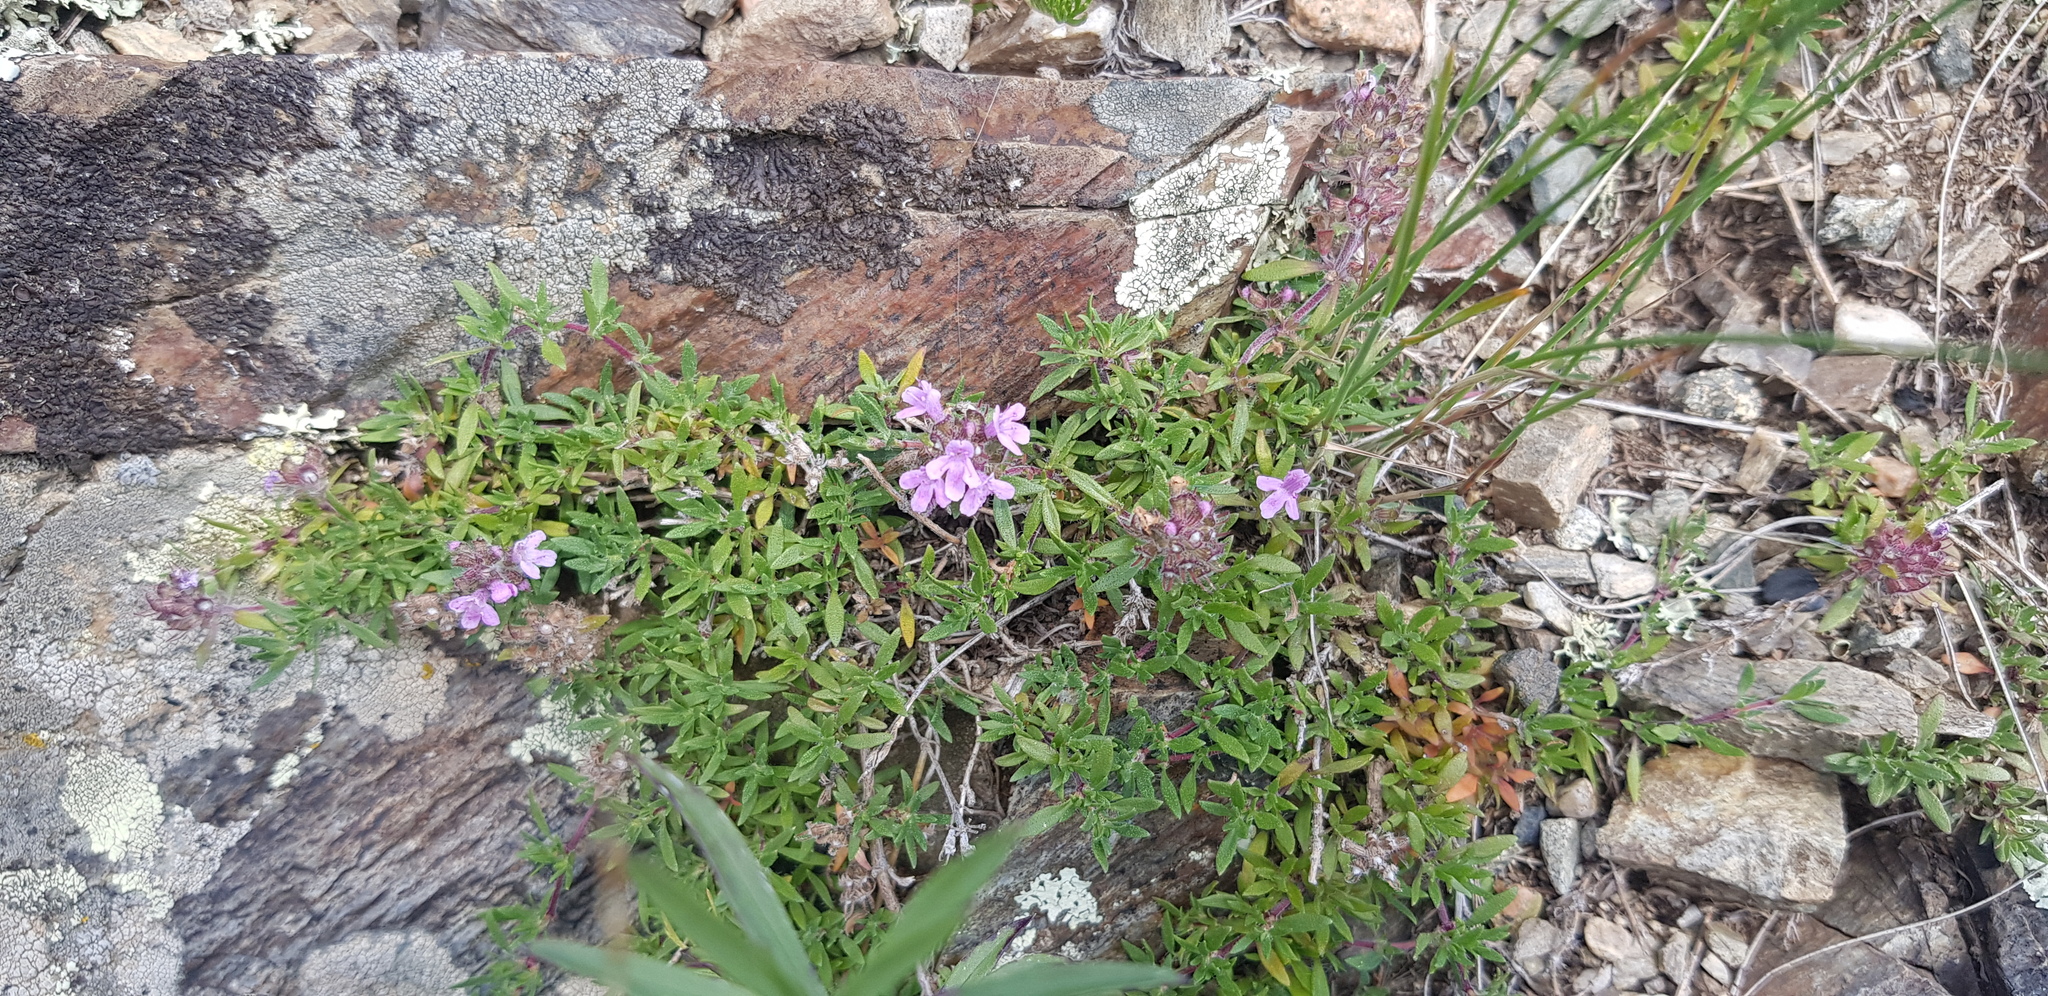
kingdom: Plantae
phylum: Tracheophyta
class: Magnoliopsida
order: Lamiales
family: Lamiaceae
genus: Thymus
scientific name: Thymus baicalensis
